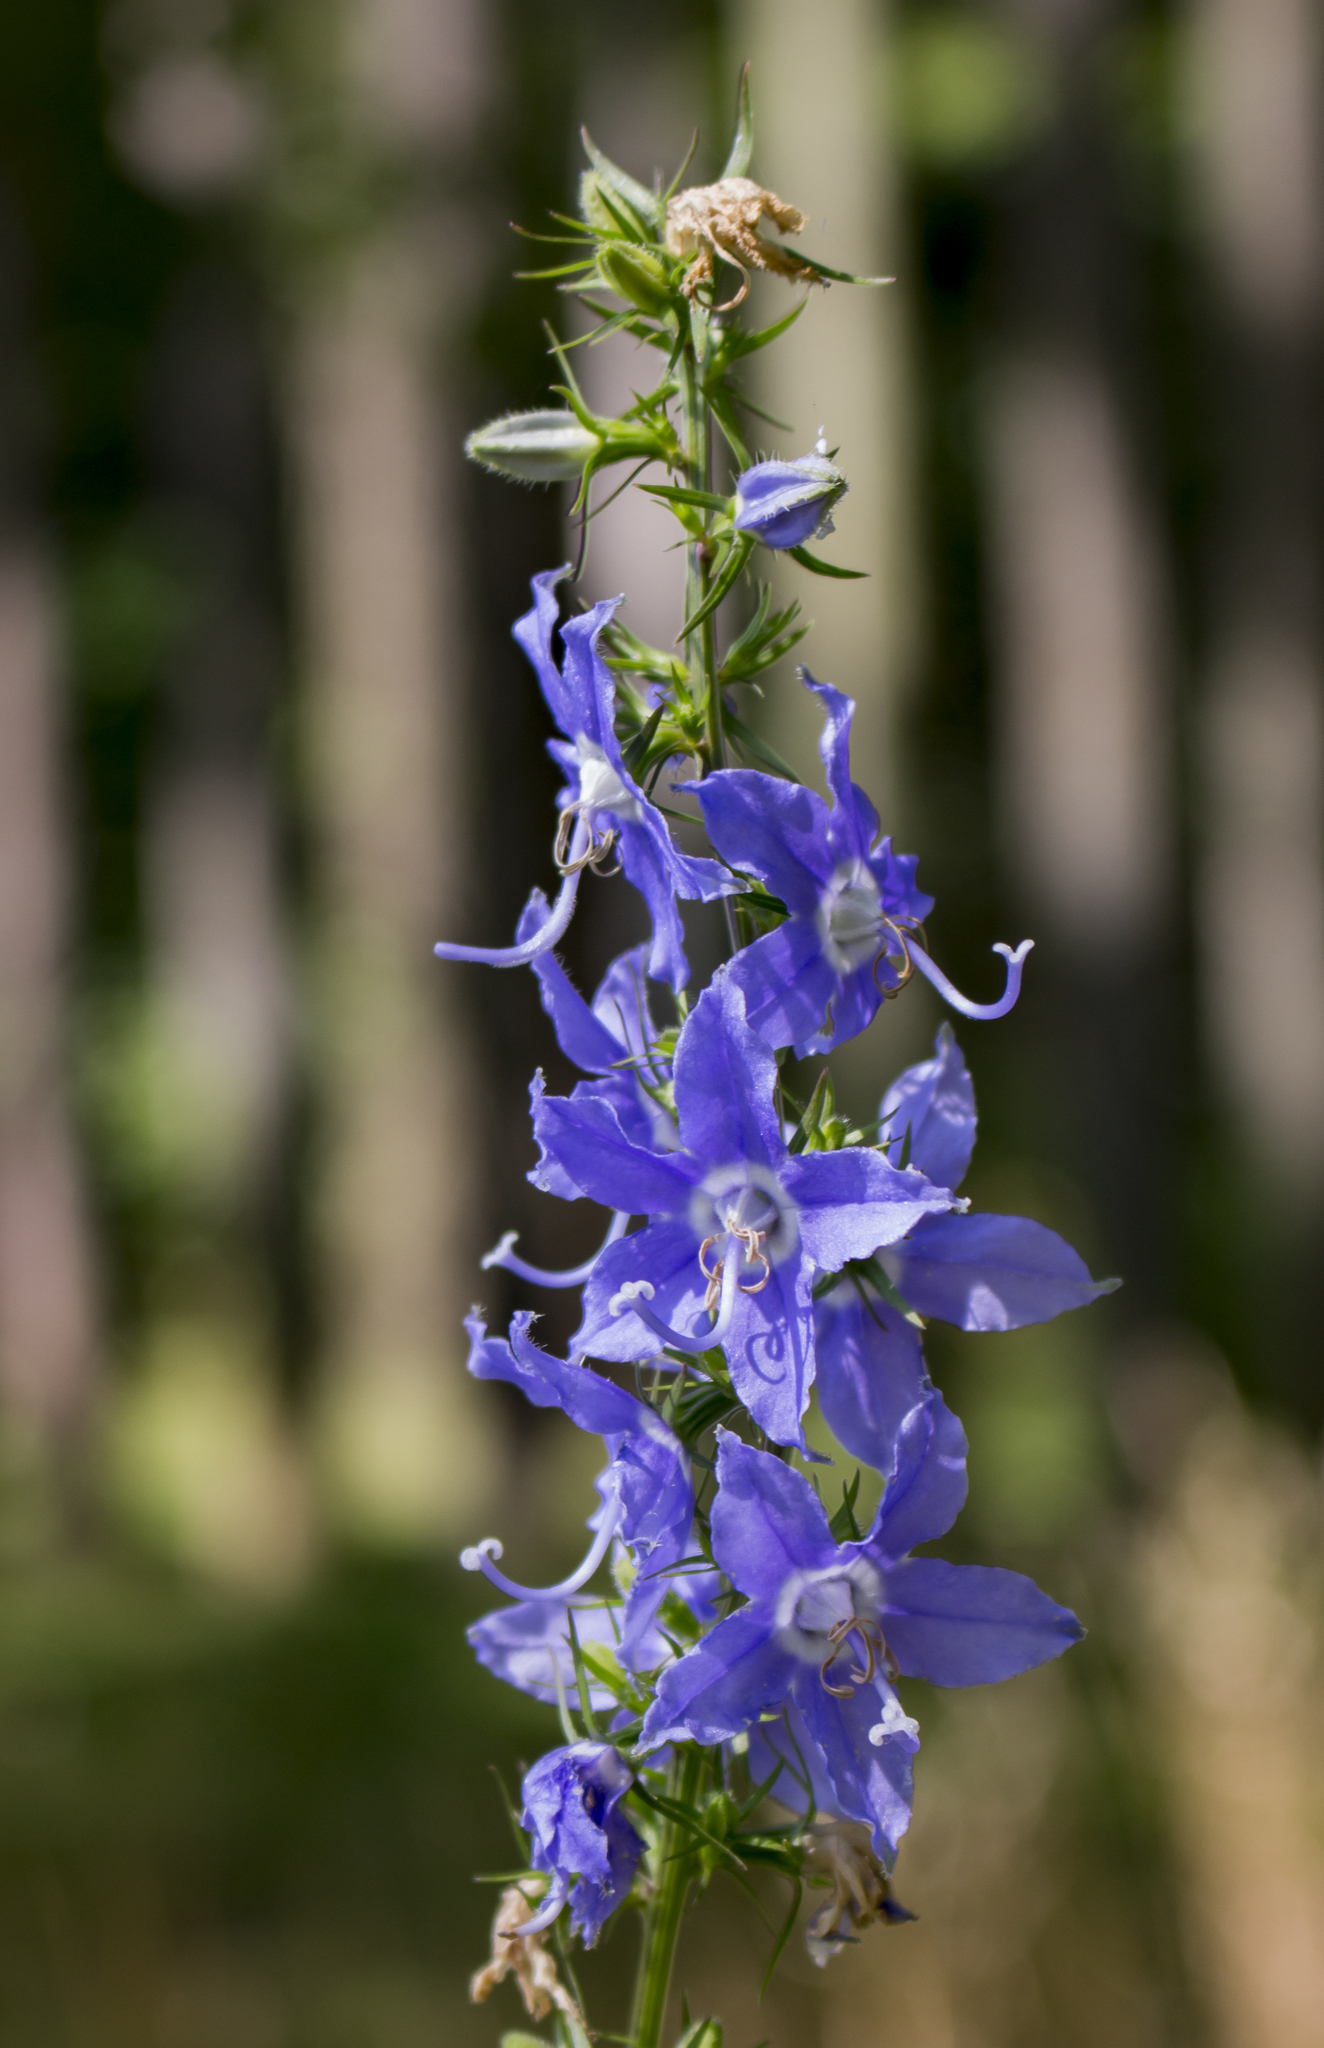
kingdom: Plantae
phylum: Tracheophyta
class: Magnoliopsida
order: Asterales
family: Campanulaceae
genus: Campanulastrum
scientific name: Campanulastrum americanum
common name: American bellflower
